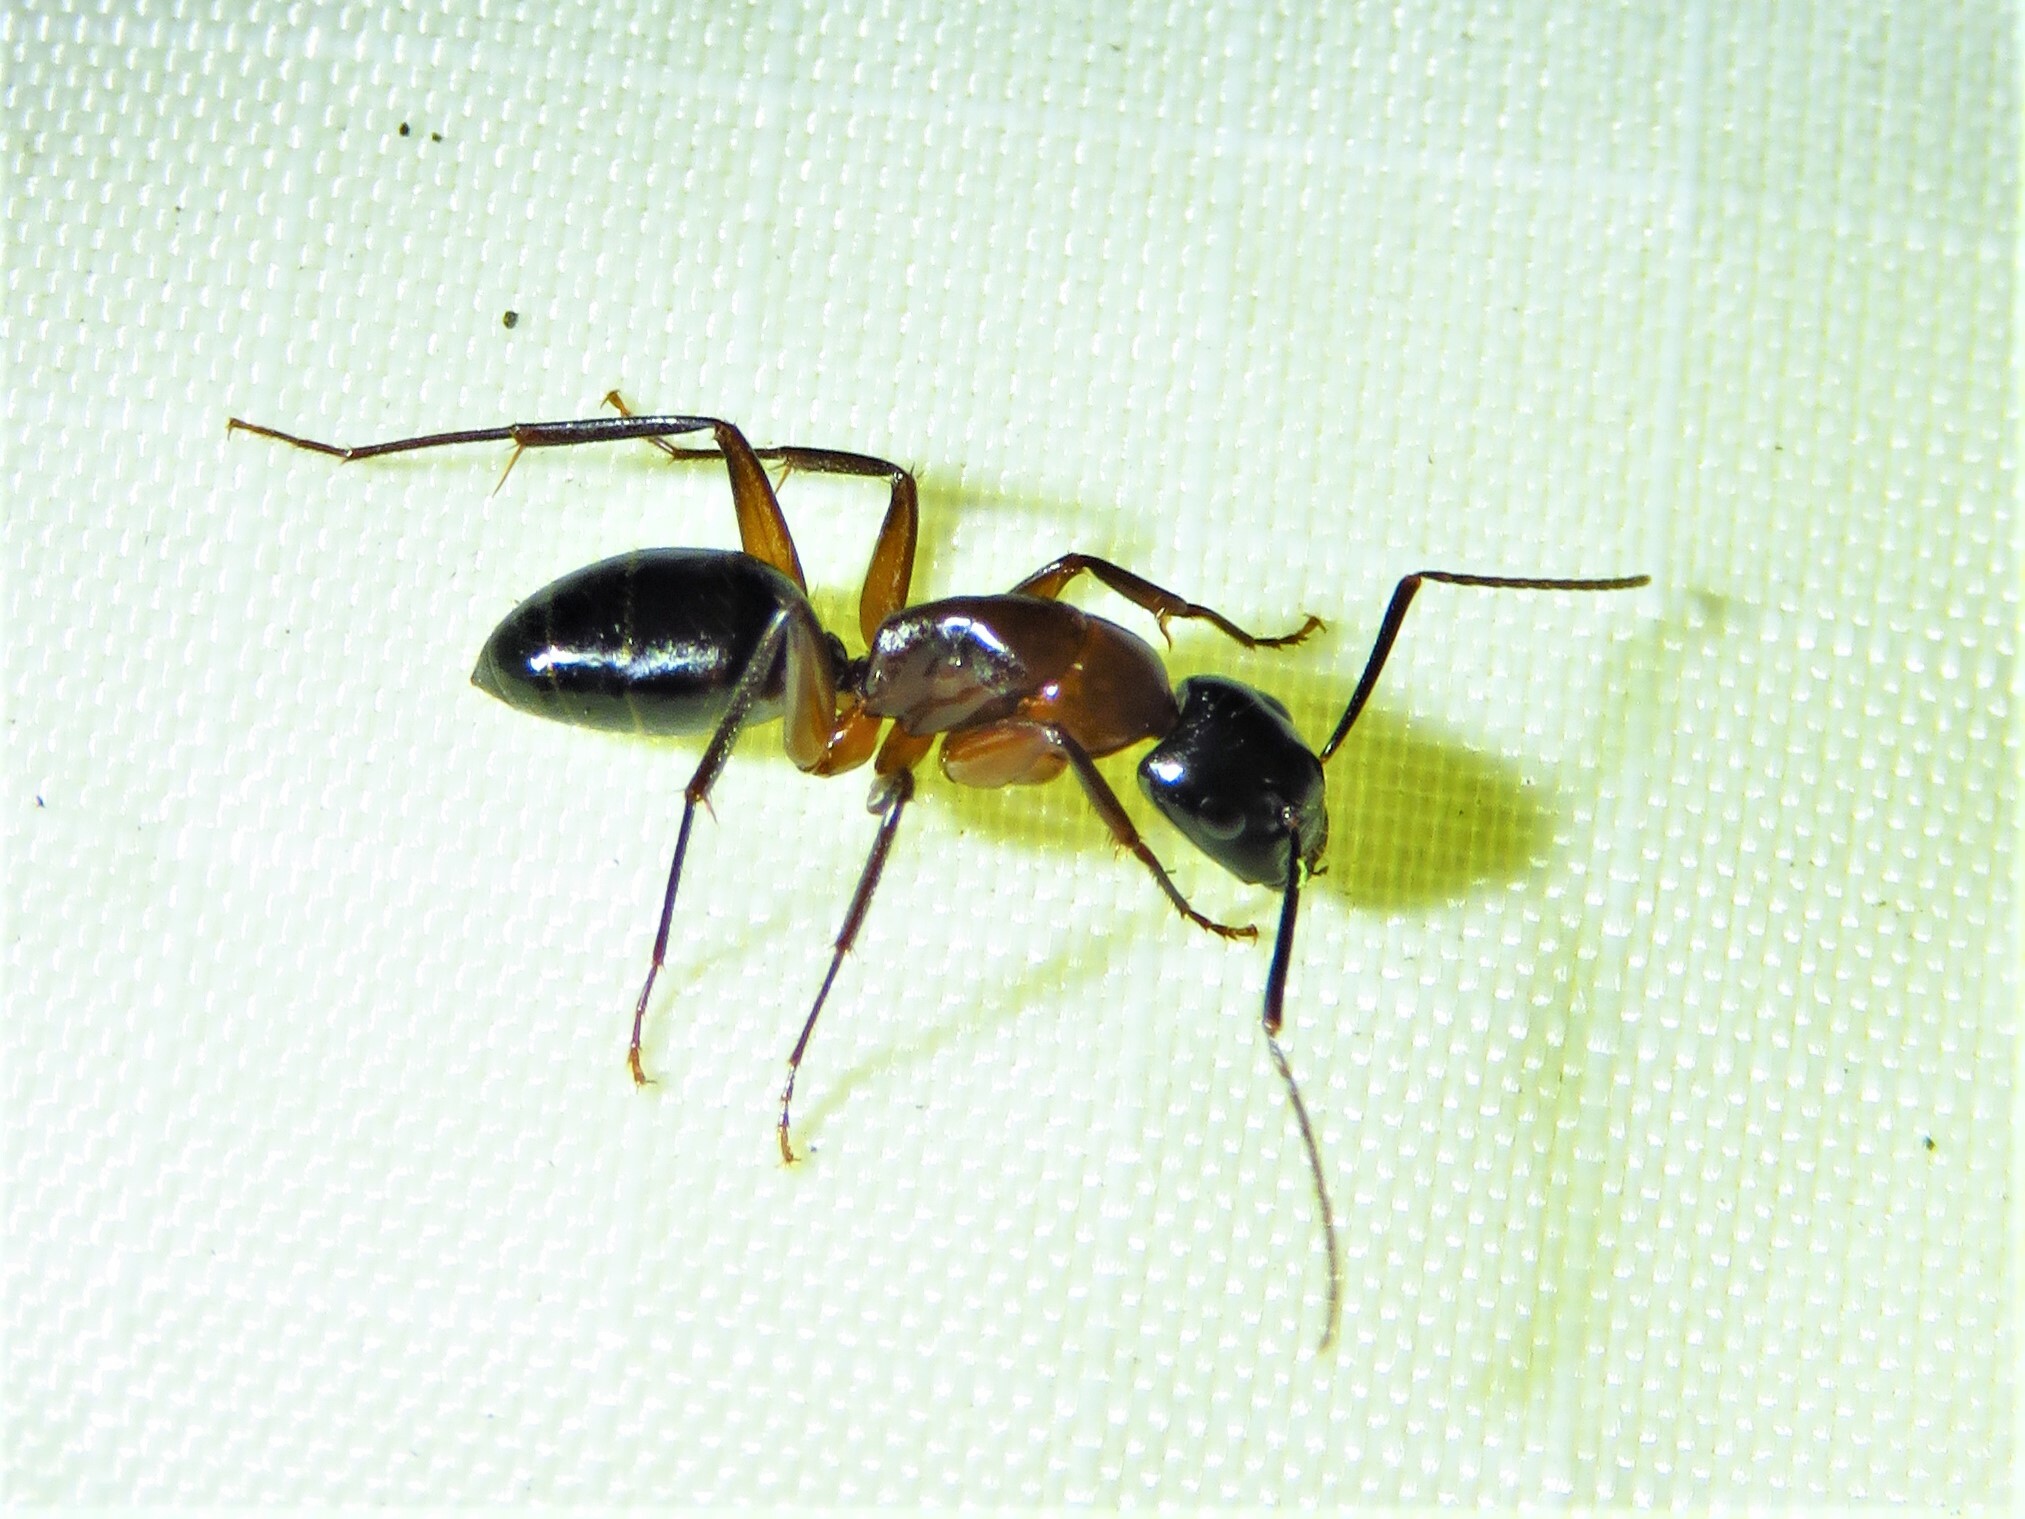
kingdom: Animalia
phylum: Arthropoda
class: Insecta
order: Hymenoptera
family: Formicidae
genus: Camponotus
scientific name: Camponotus texanus
